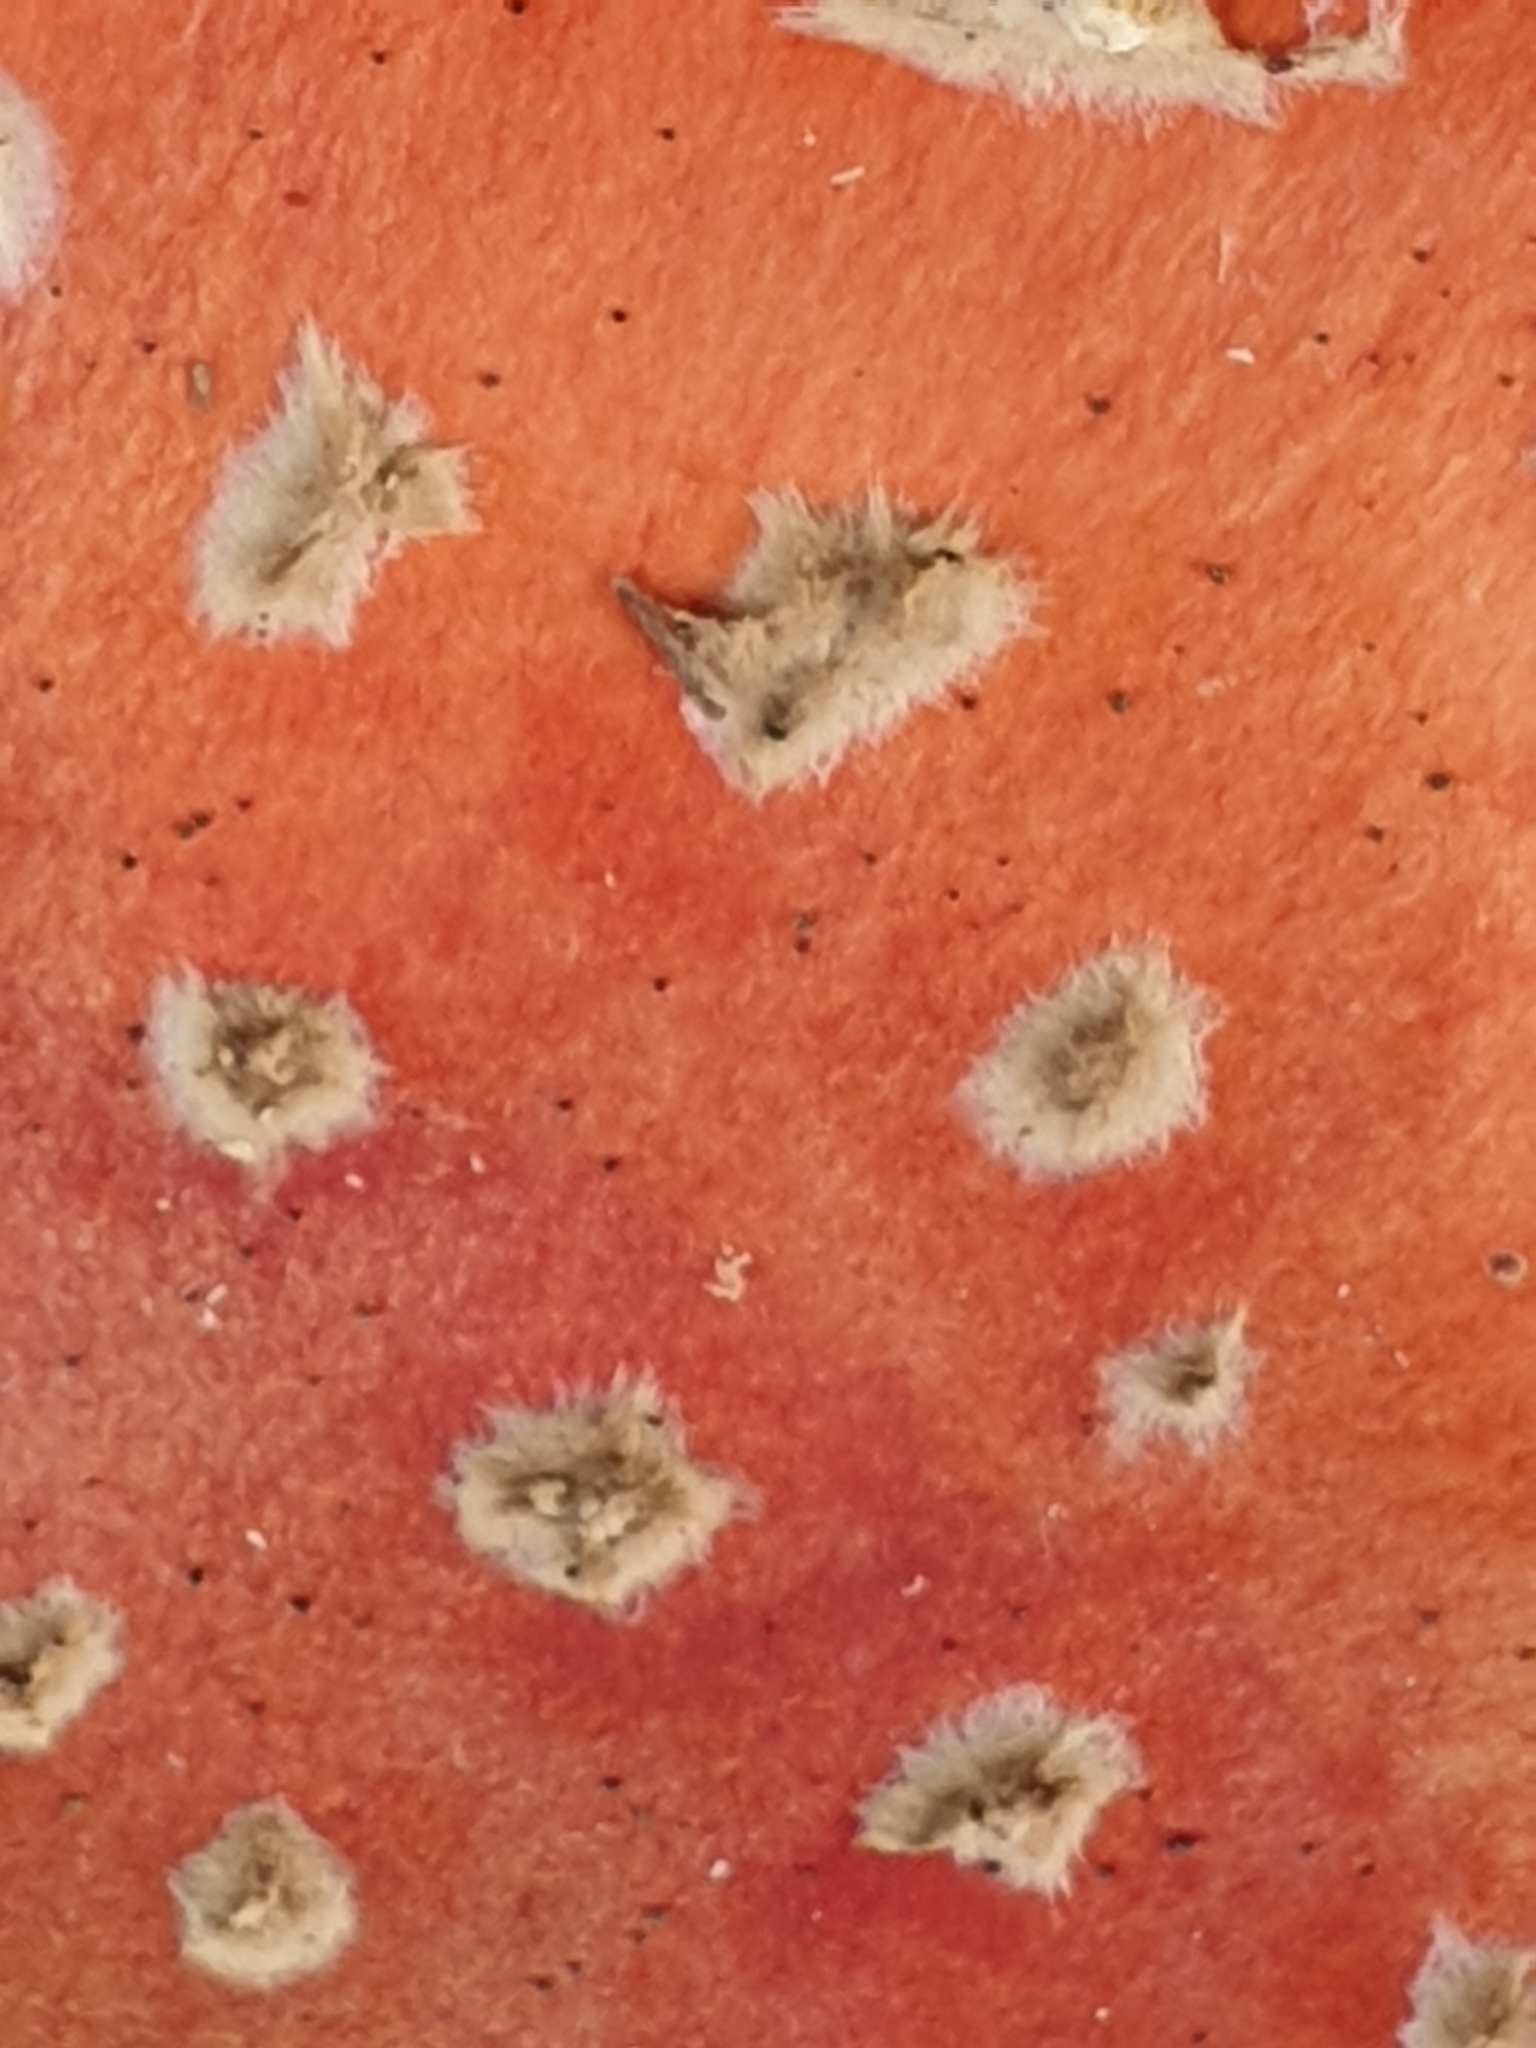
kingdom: Fungi
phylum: Basidiomycota
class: Agaricomycetes
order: Agaricales
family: Amanitaceae
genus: Amanita
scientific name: Amanita muscaria
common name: Fly agaric
